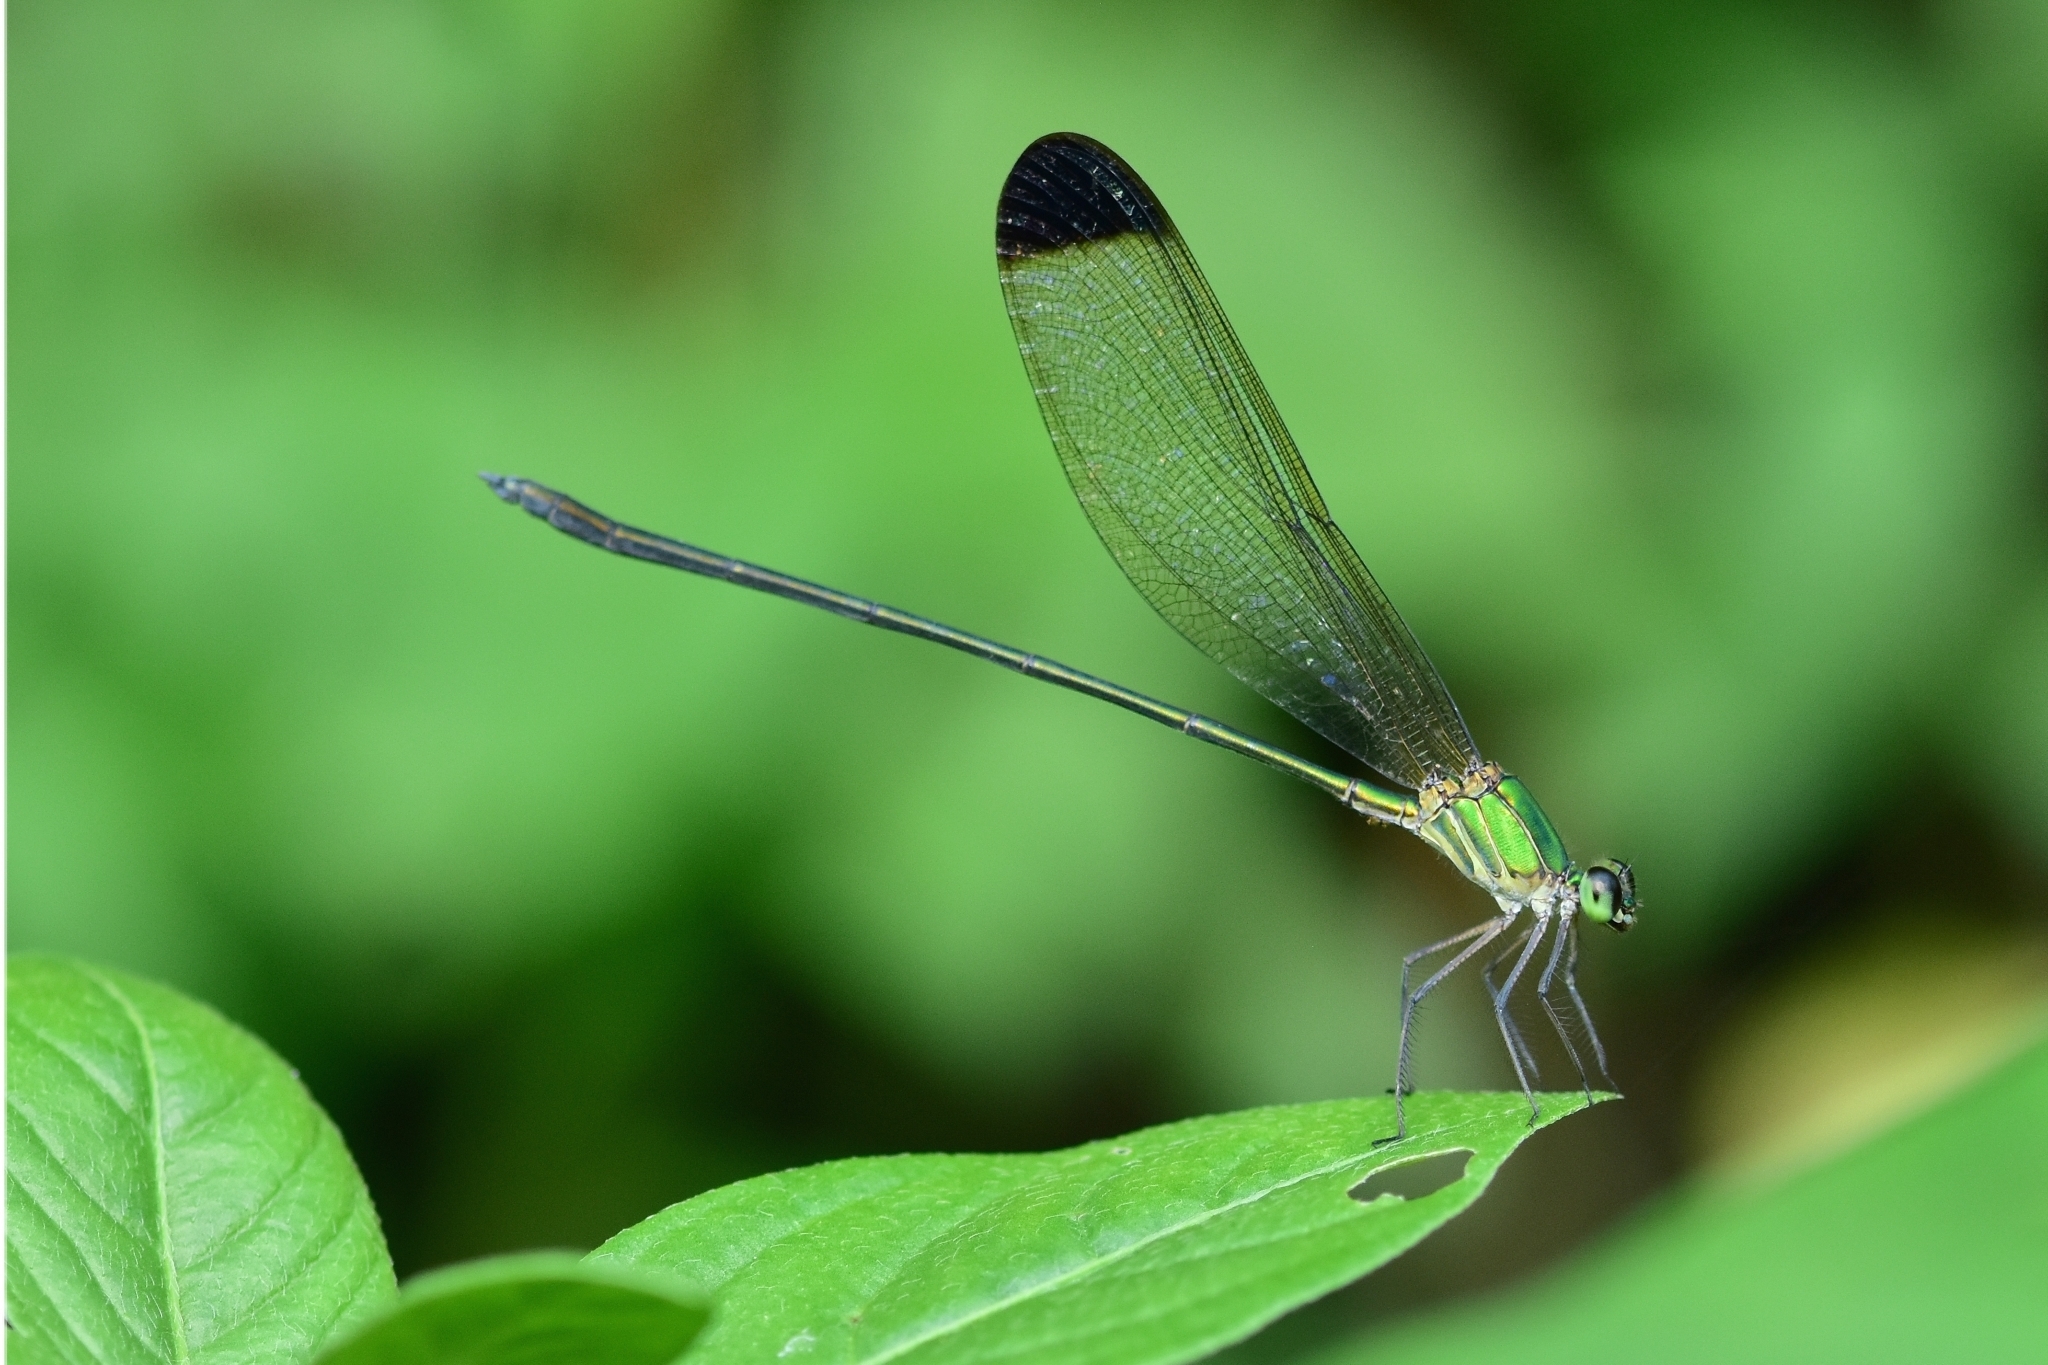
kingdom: Animalia
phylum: Arthropoda
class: Insecta
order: Odonata
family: Calopterygidae
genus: Vestalis
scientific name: Vestalis apicalis
